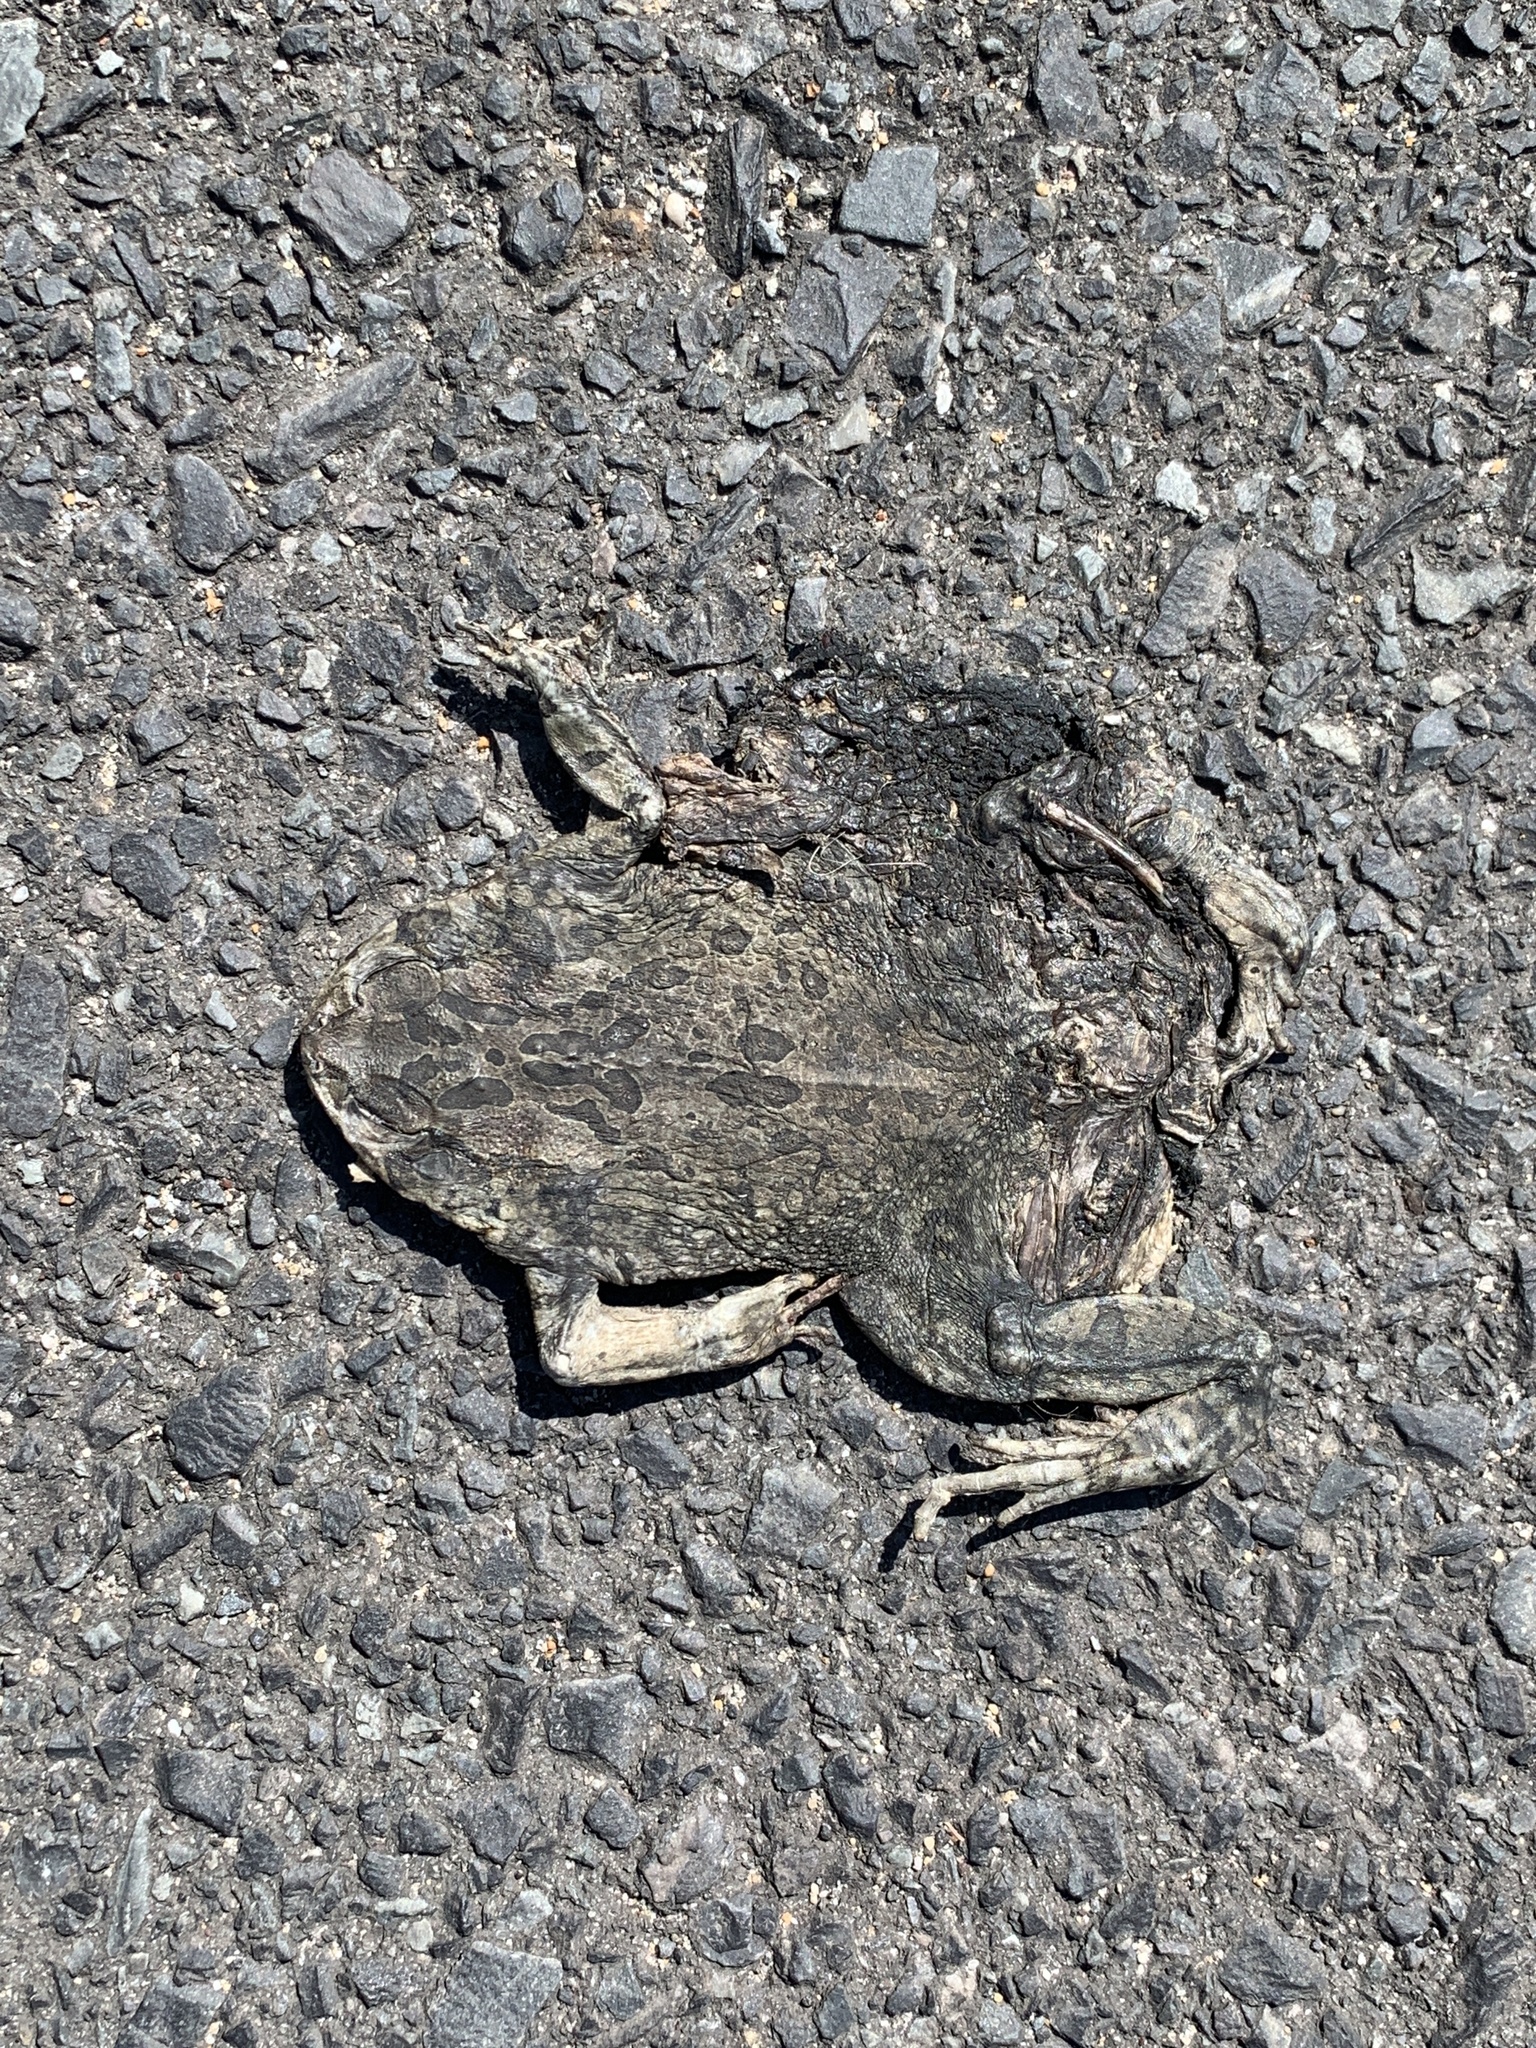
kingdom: Animalia
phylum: Chordata
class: Amphibia
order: Anura
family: Bufonidae
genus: Sclerophrys
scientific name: Sclerophrys capensis
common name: Ranger’s toad
